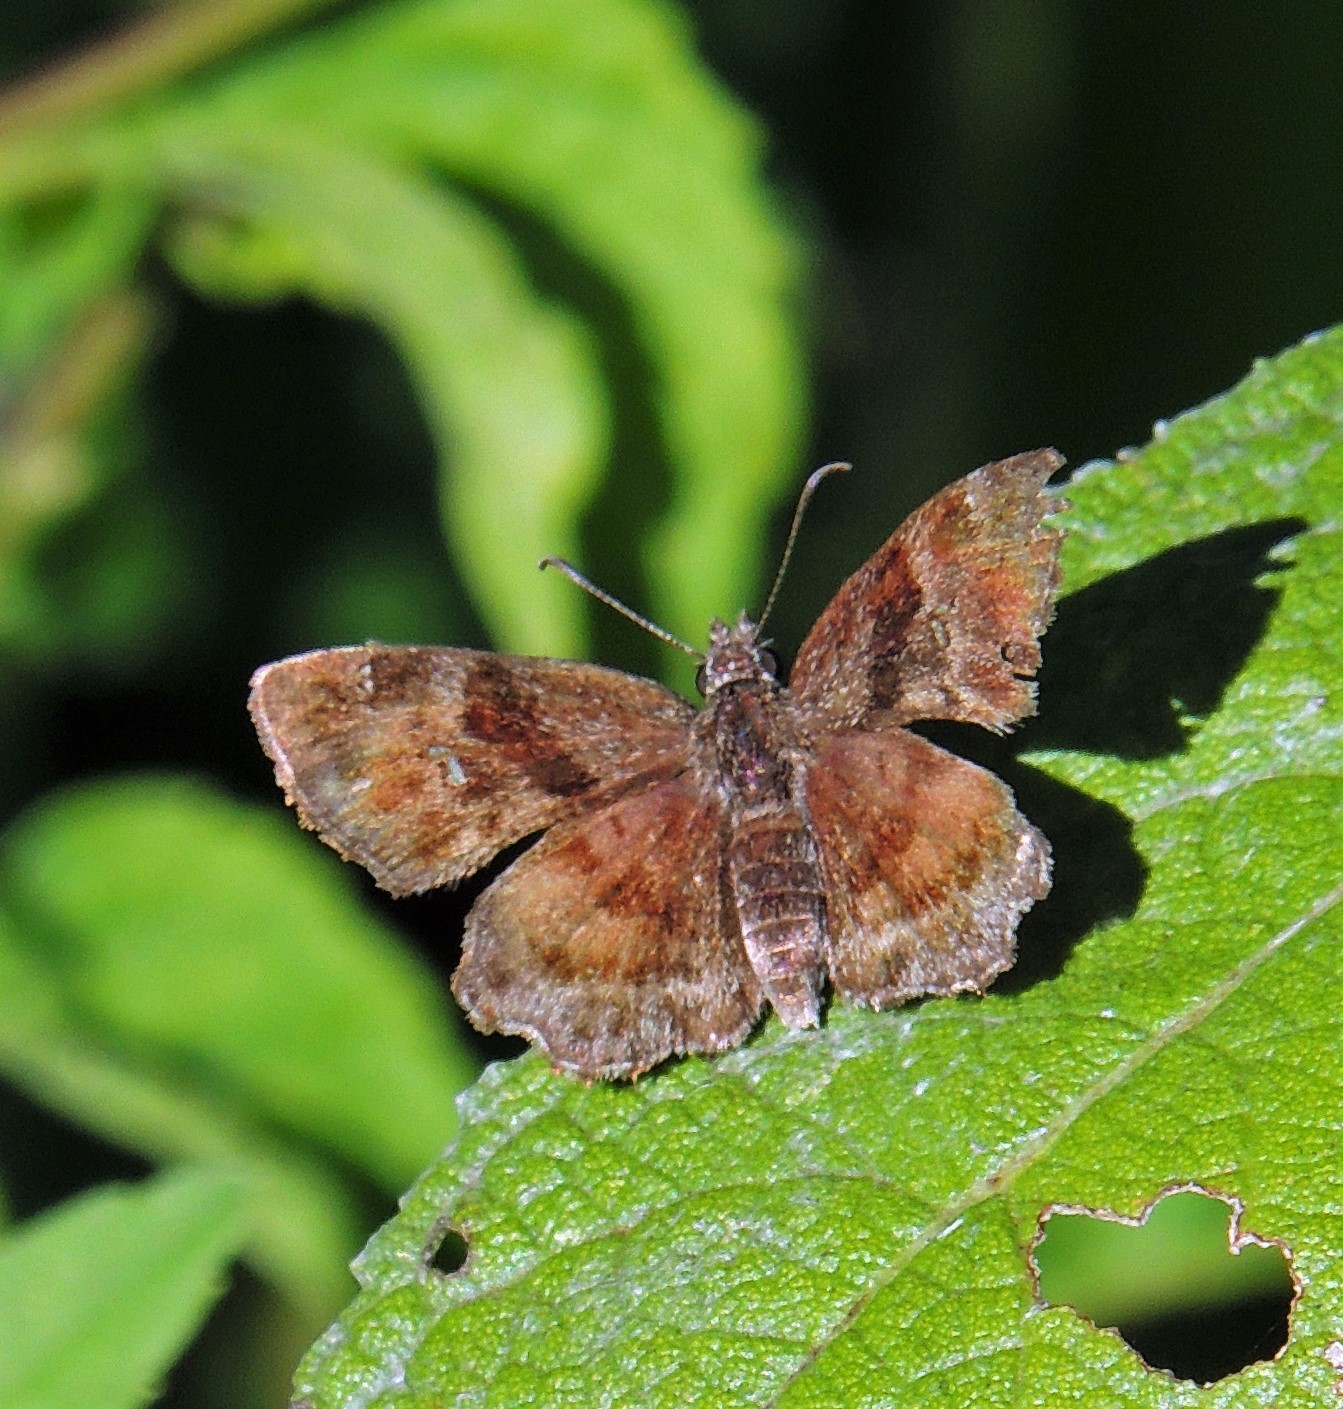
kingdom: Animalia
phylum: Arthropoda
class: Insecta
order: Lepidoptera
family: Hesperiidae
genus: Antigonus
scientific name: Antigonus
